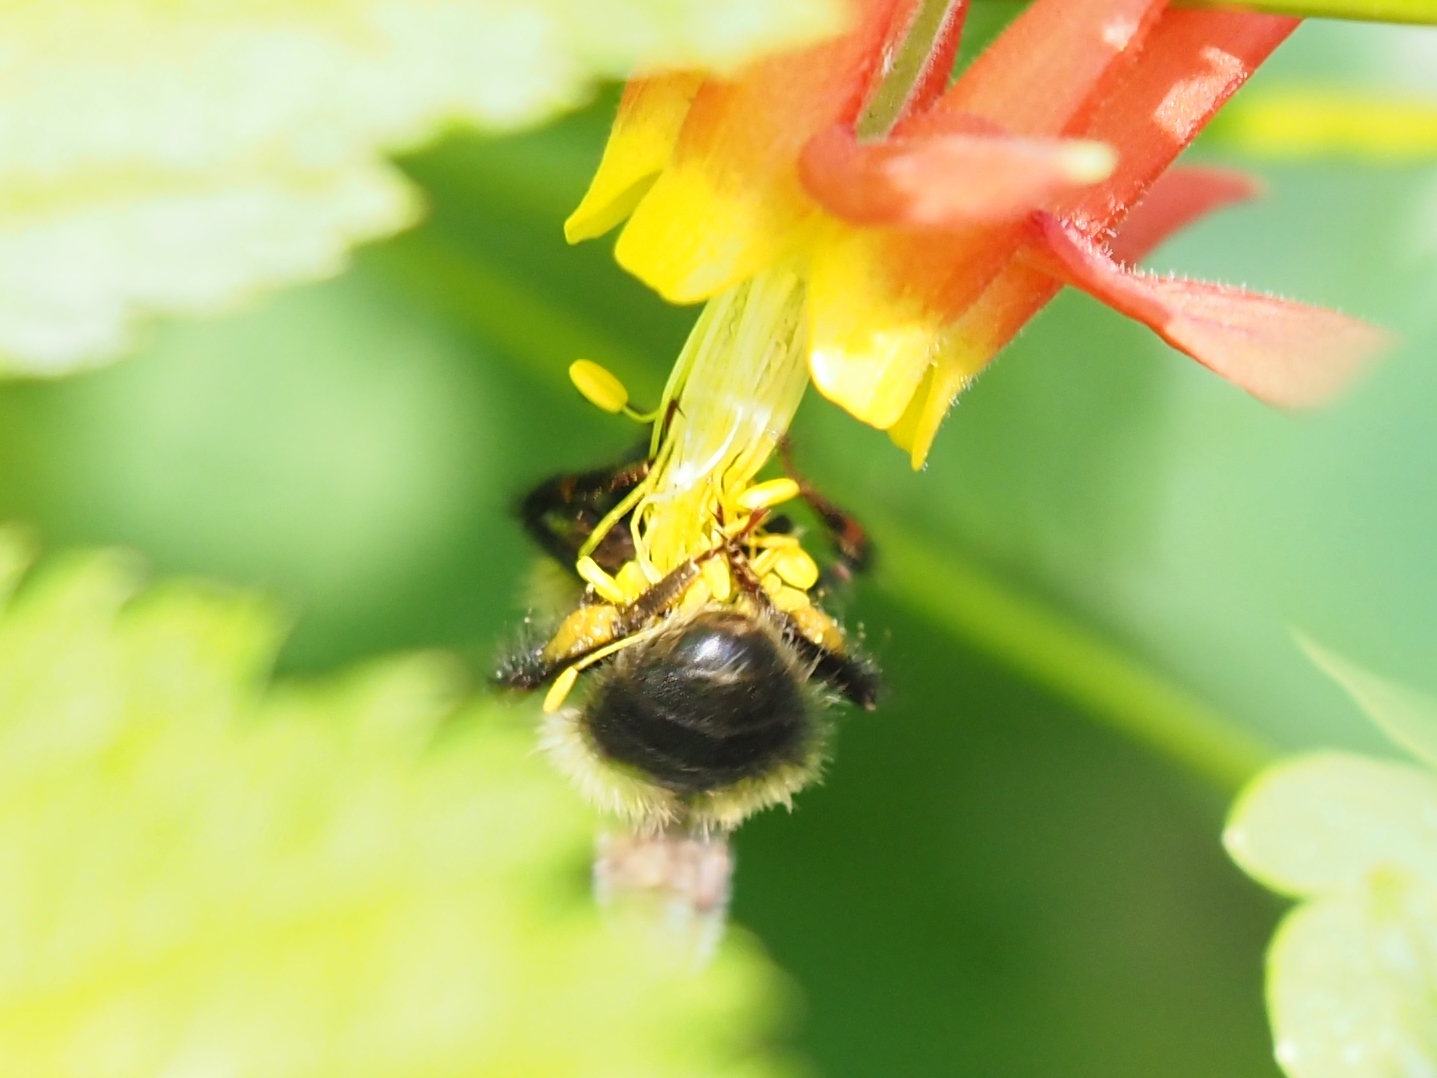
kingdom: Animalia
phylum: Arthropoda
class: Insecta
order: Hymenoptera
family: Apidae
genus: Bombus
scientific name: Bombus flavifrons
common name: Yellow head bumble bee
